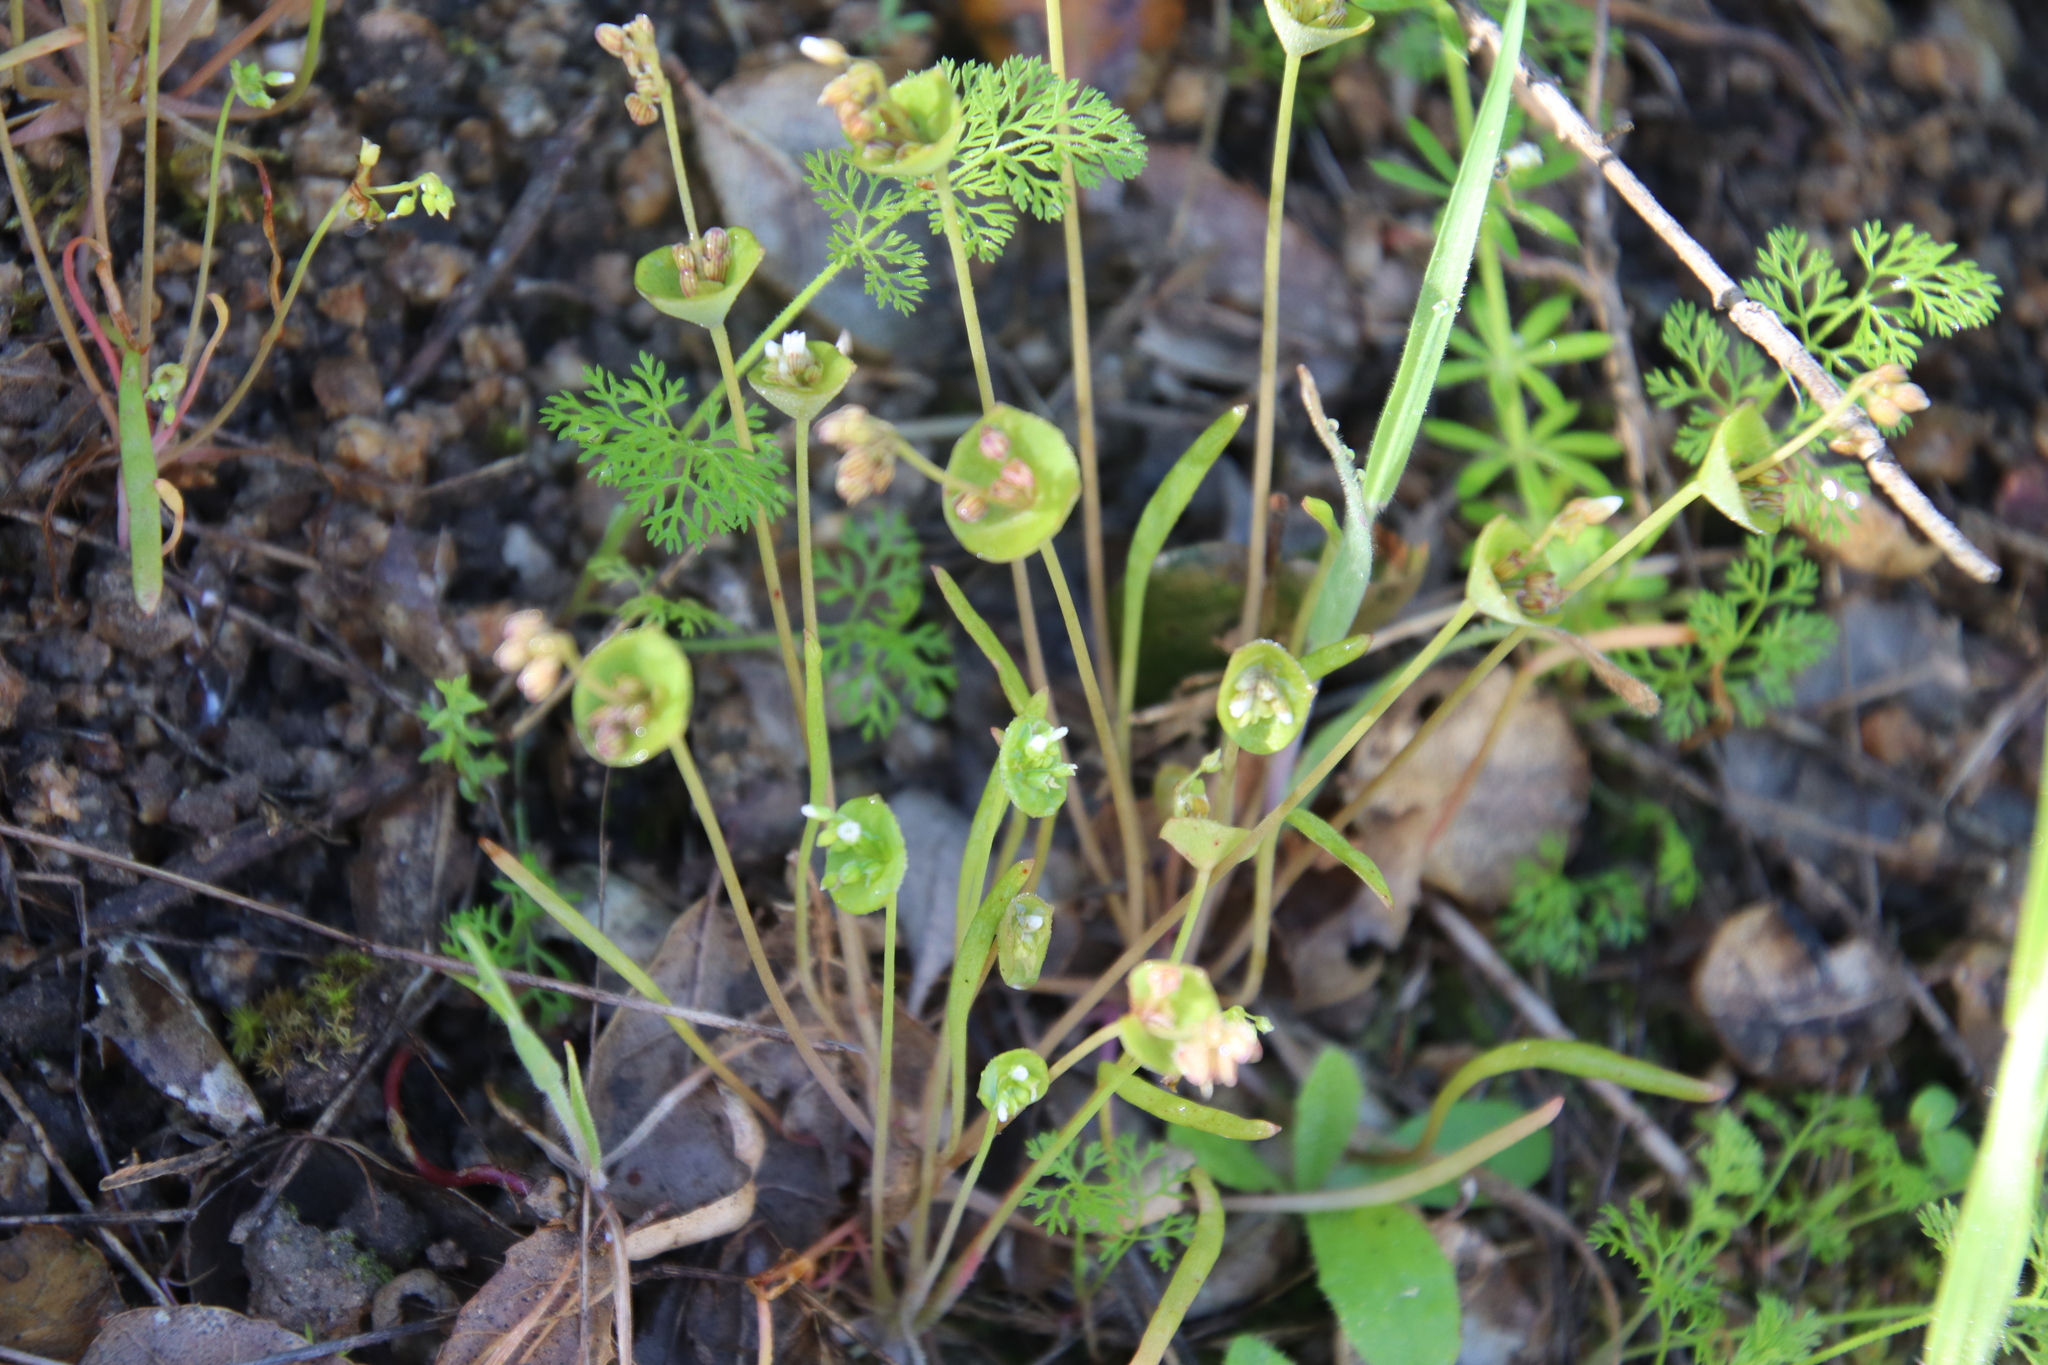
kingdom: Plantae
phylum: Tracheophyta
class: Magnoliopsida
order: Caryophyllales
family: Montiaceae
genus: Claytonia
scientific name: Claytonia parviflora
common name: Indian-lettuce
